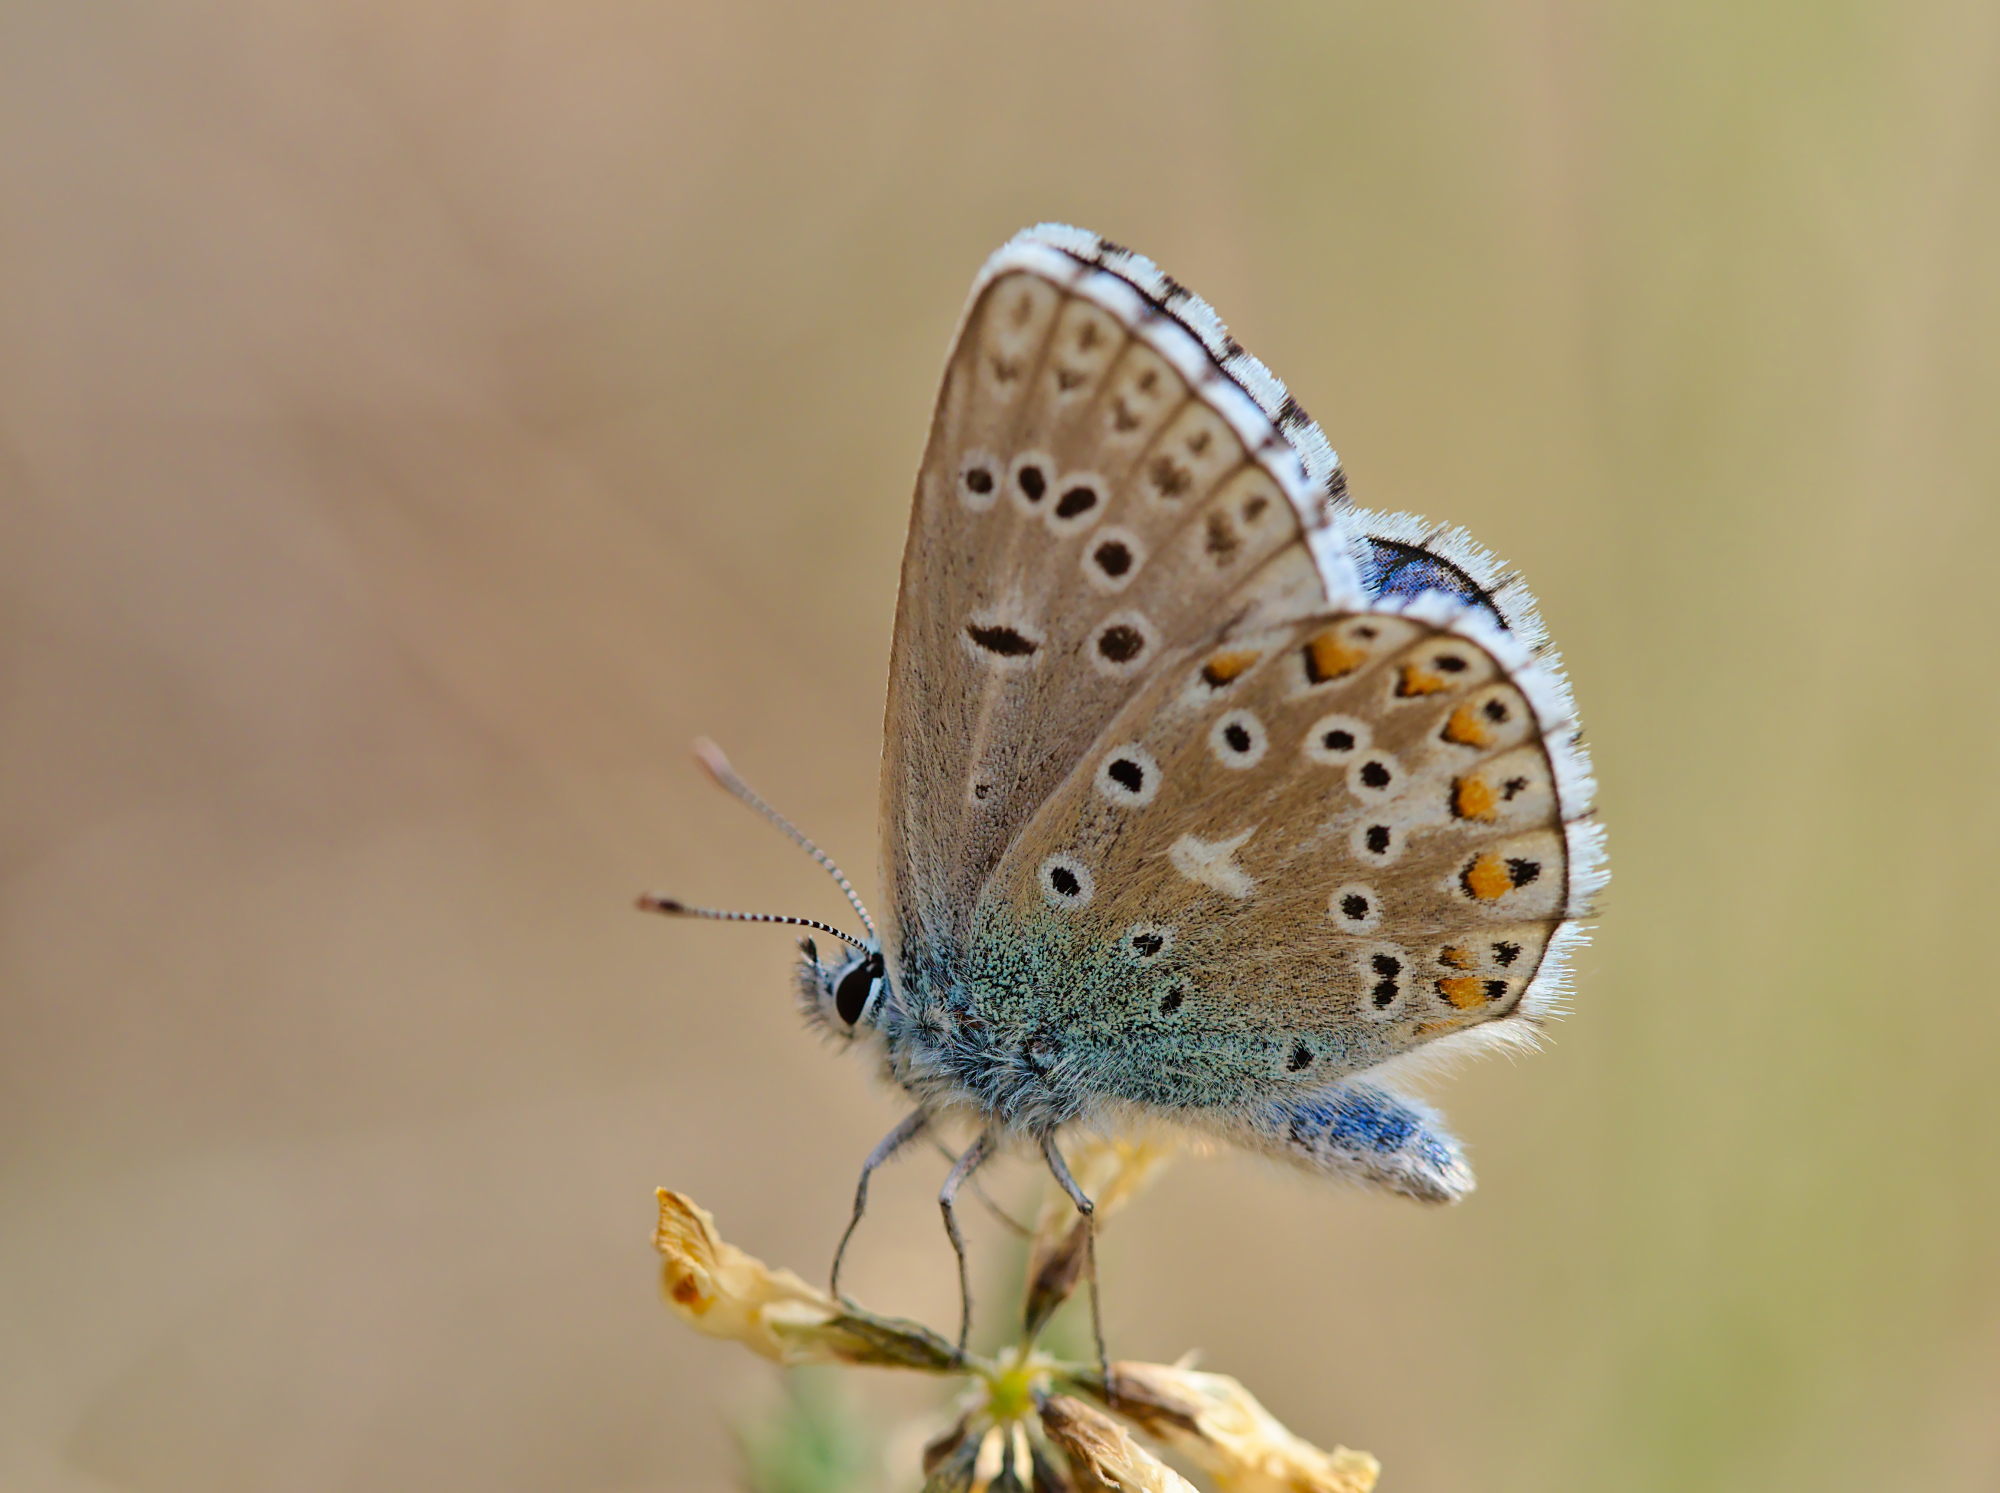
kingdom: Animalia
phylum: Arthropoda
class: Insecta
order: Lepidoptera
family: Lycaenidae
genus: Lysandra
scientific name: Lysandra bellargus
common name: Adonis blue
